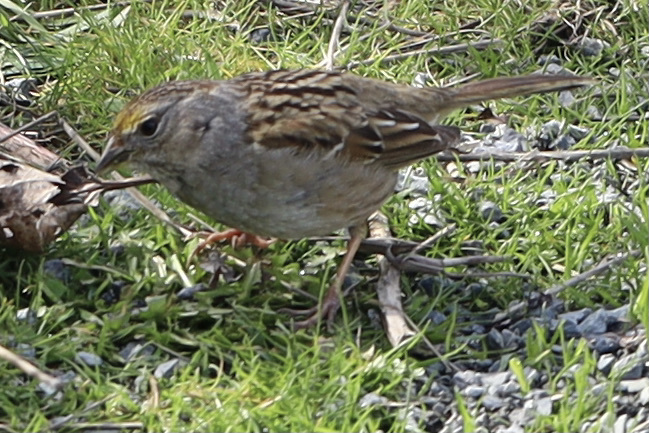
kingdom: Animalia
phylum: Chordata
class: Aves
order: Passeriformes
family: Passerellidae
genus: Zonotrichia
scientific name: Zonotrichia atricapilla
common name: Golden-crowned sparrow
